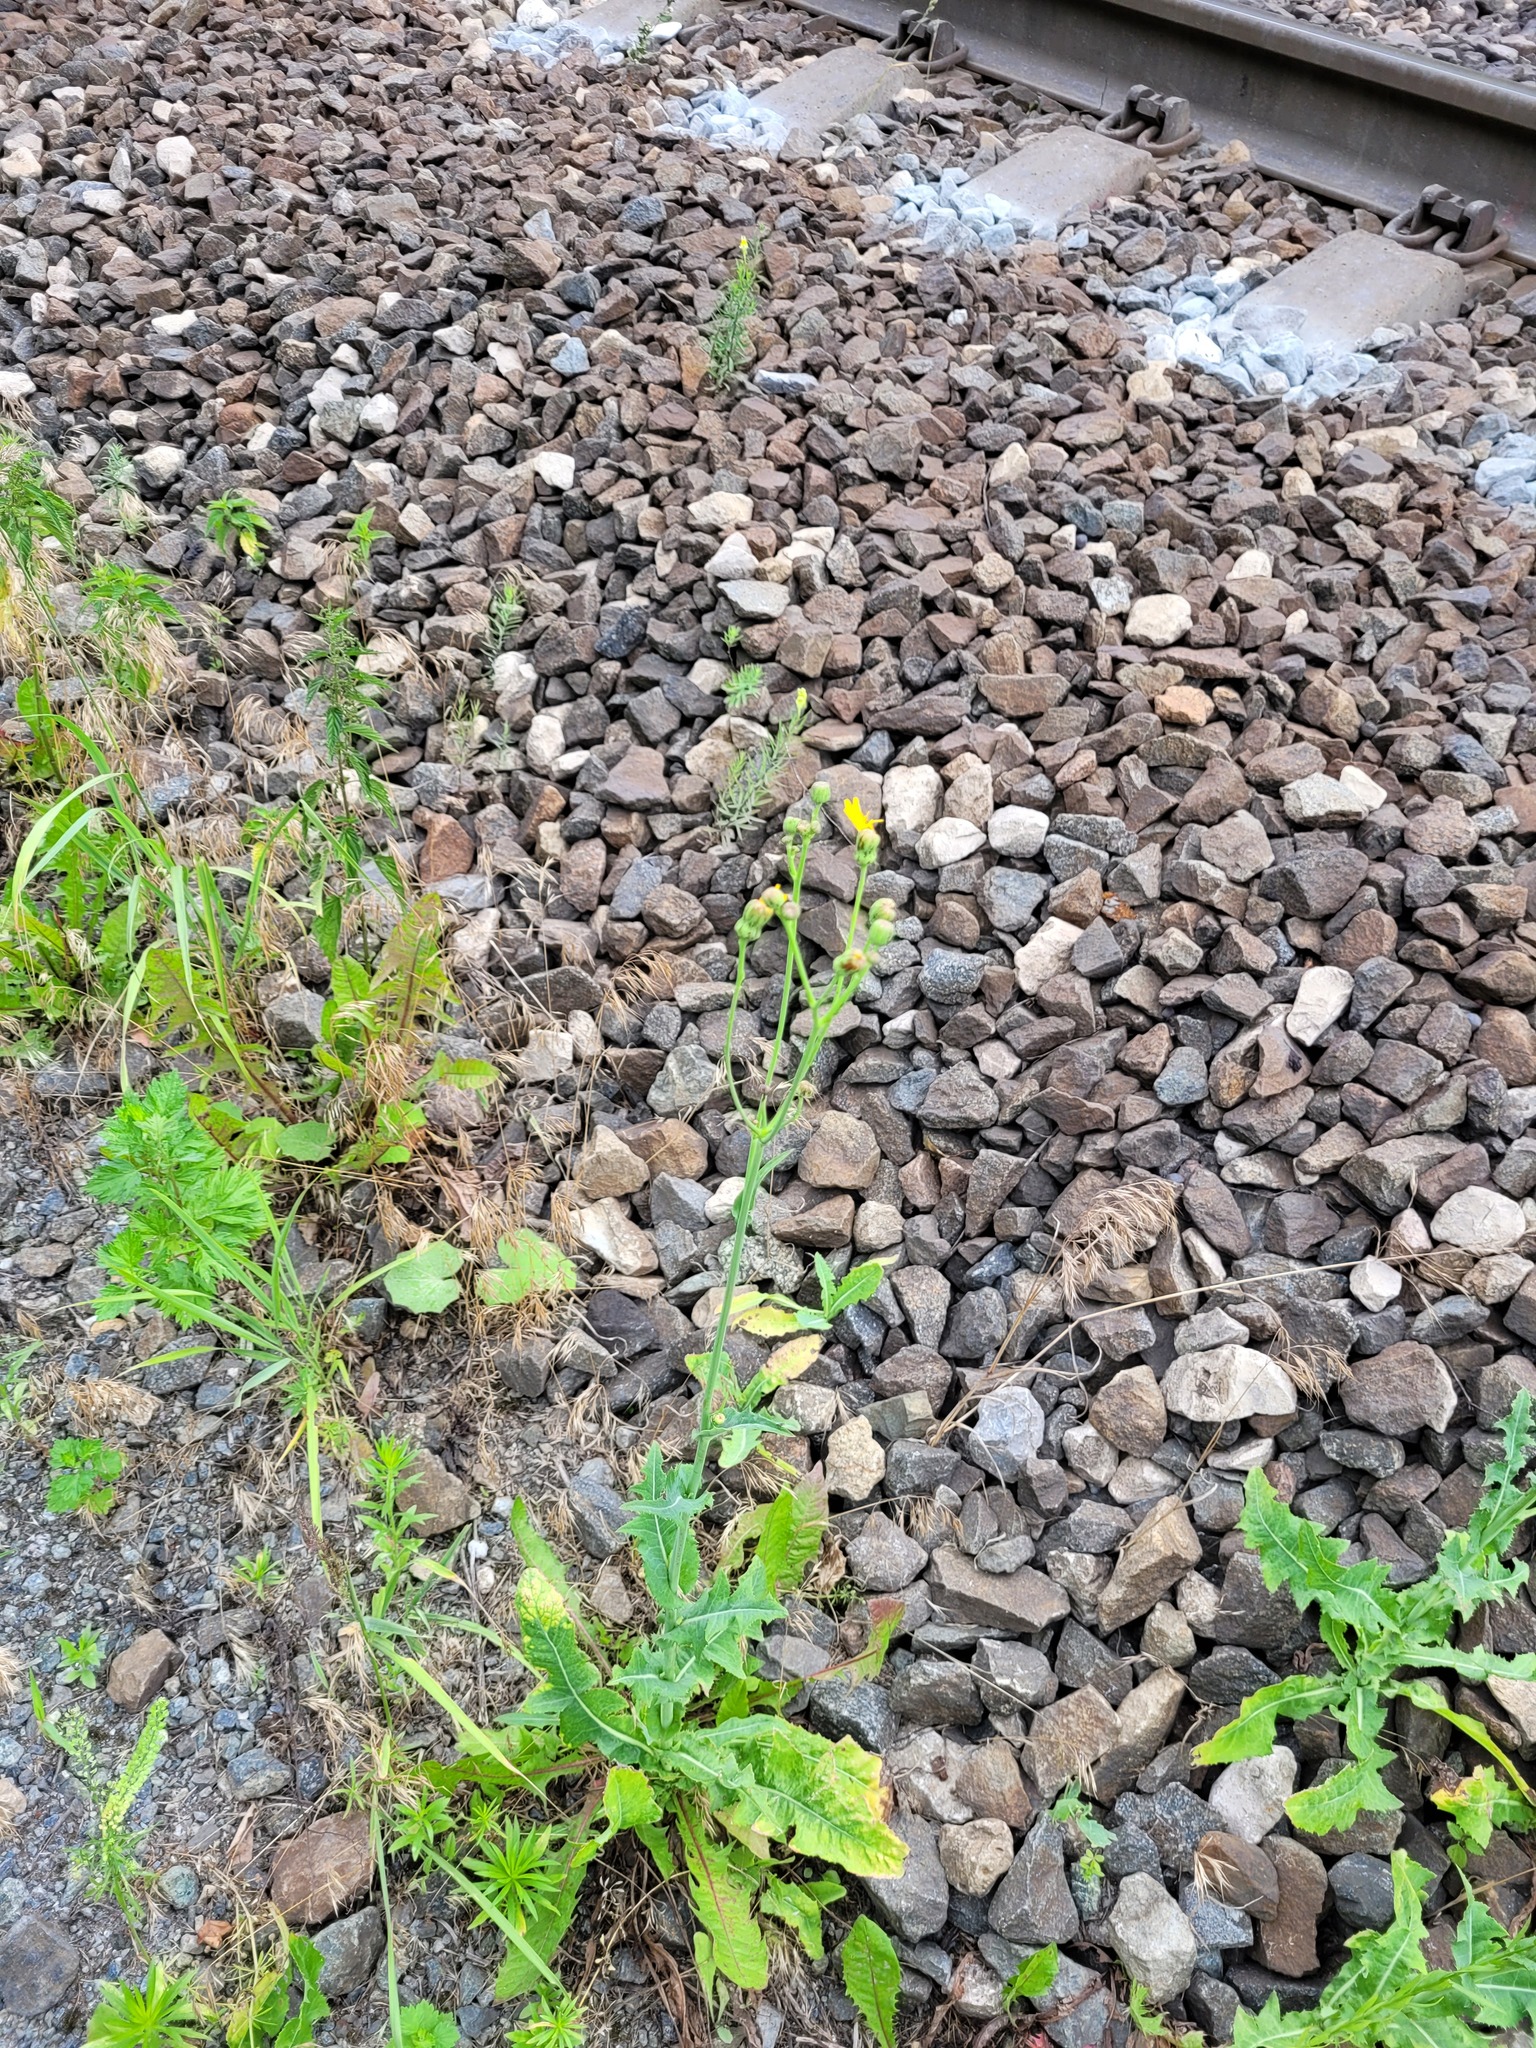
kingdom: Plantae
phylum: Tracheophyta
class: Magnoliopsida
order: Asterales
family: Asteraceae
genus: Sonchus
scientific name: Sonchus arvensis
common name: Perennial sow-thistle
